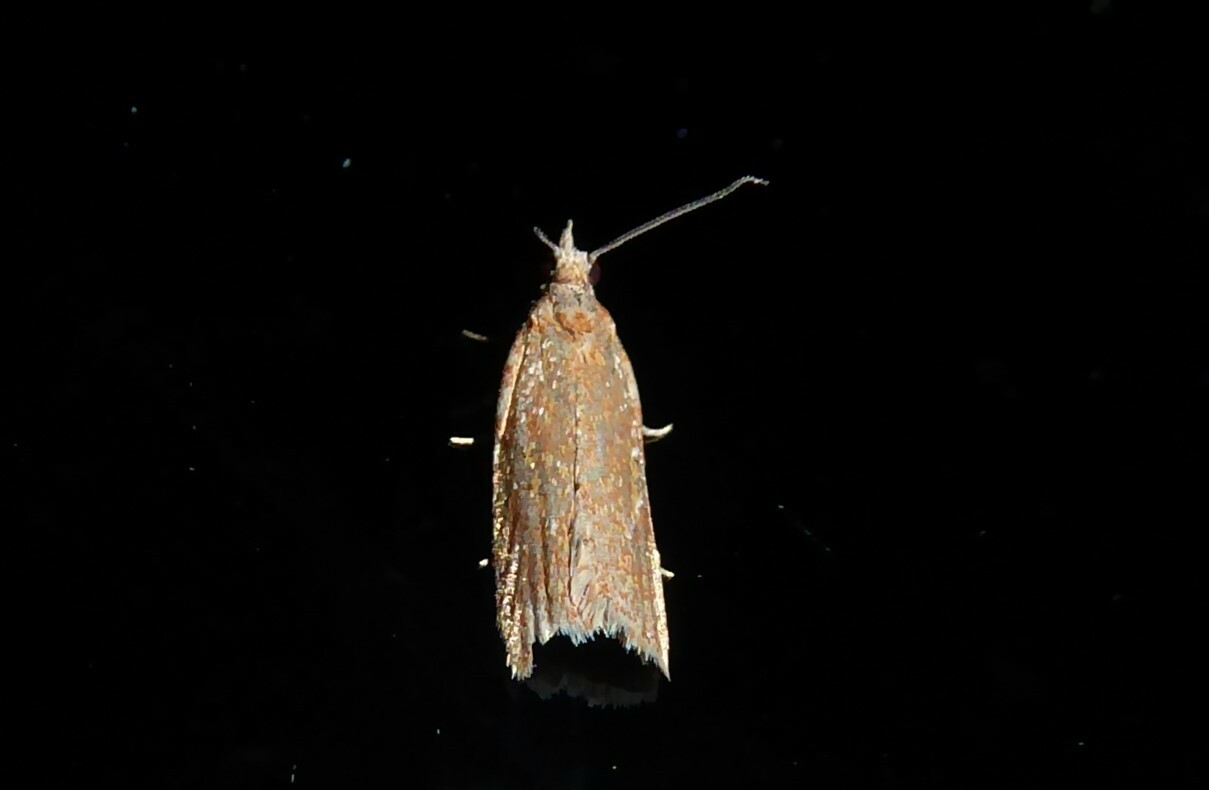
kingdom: Animalia
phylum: Arthropoda
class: Insecta
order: Lepidoptera
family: Tortricidae
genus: Capua
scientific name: Capua semiferana
